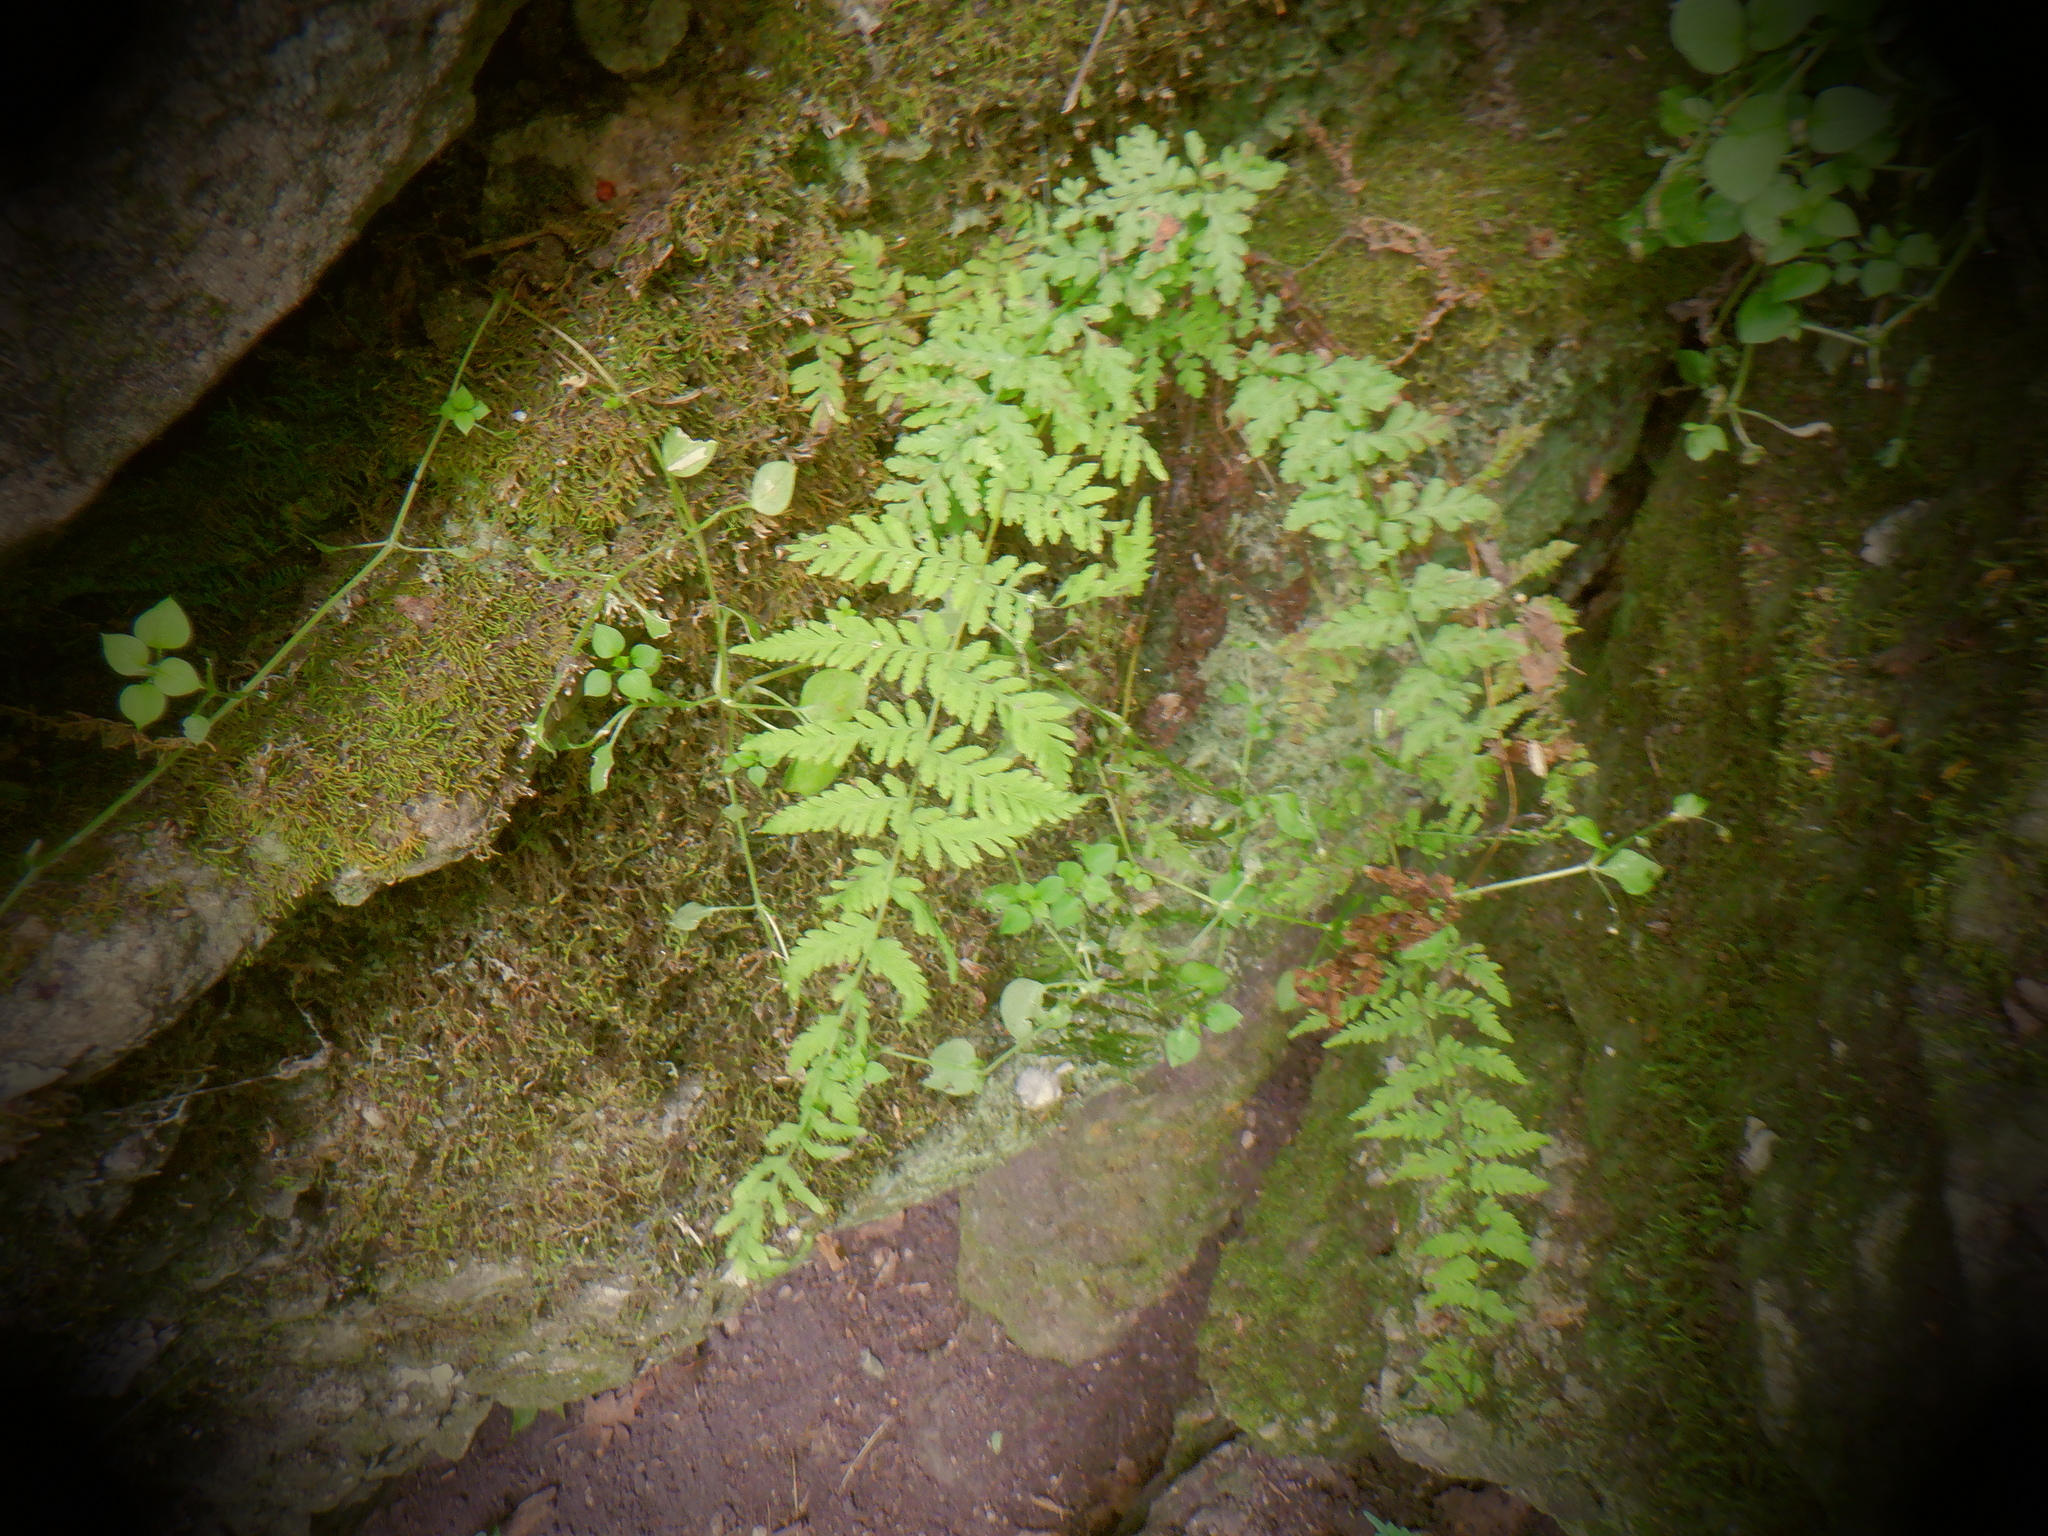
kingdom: Plantae
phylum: Tracheophyta
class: Polypodiopsida
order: Polypodiales
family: Cystopteridaceae
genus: Cystopteris
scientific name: Cystopteris bulbifera
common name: Bulblet bladder fern
